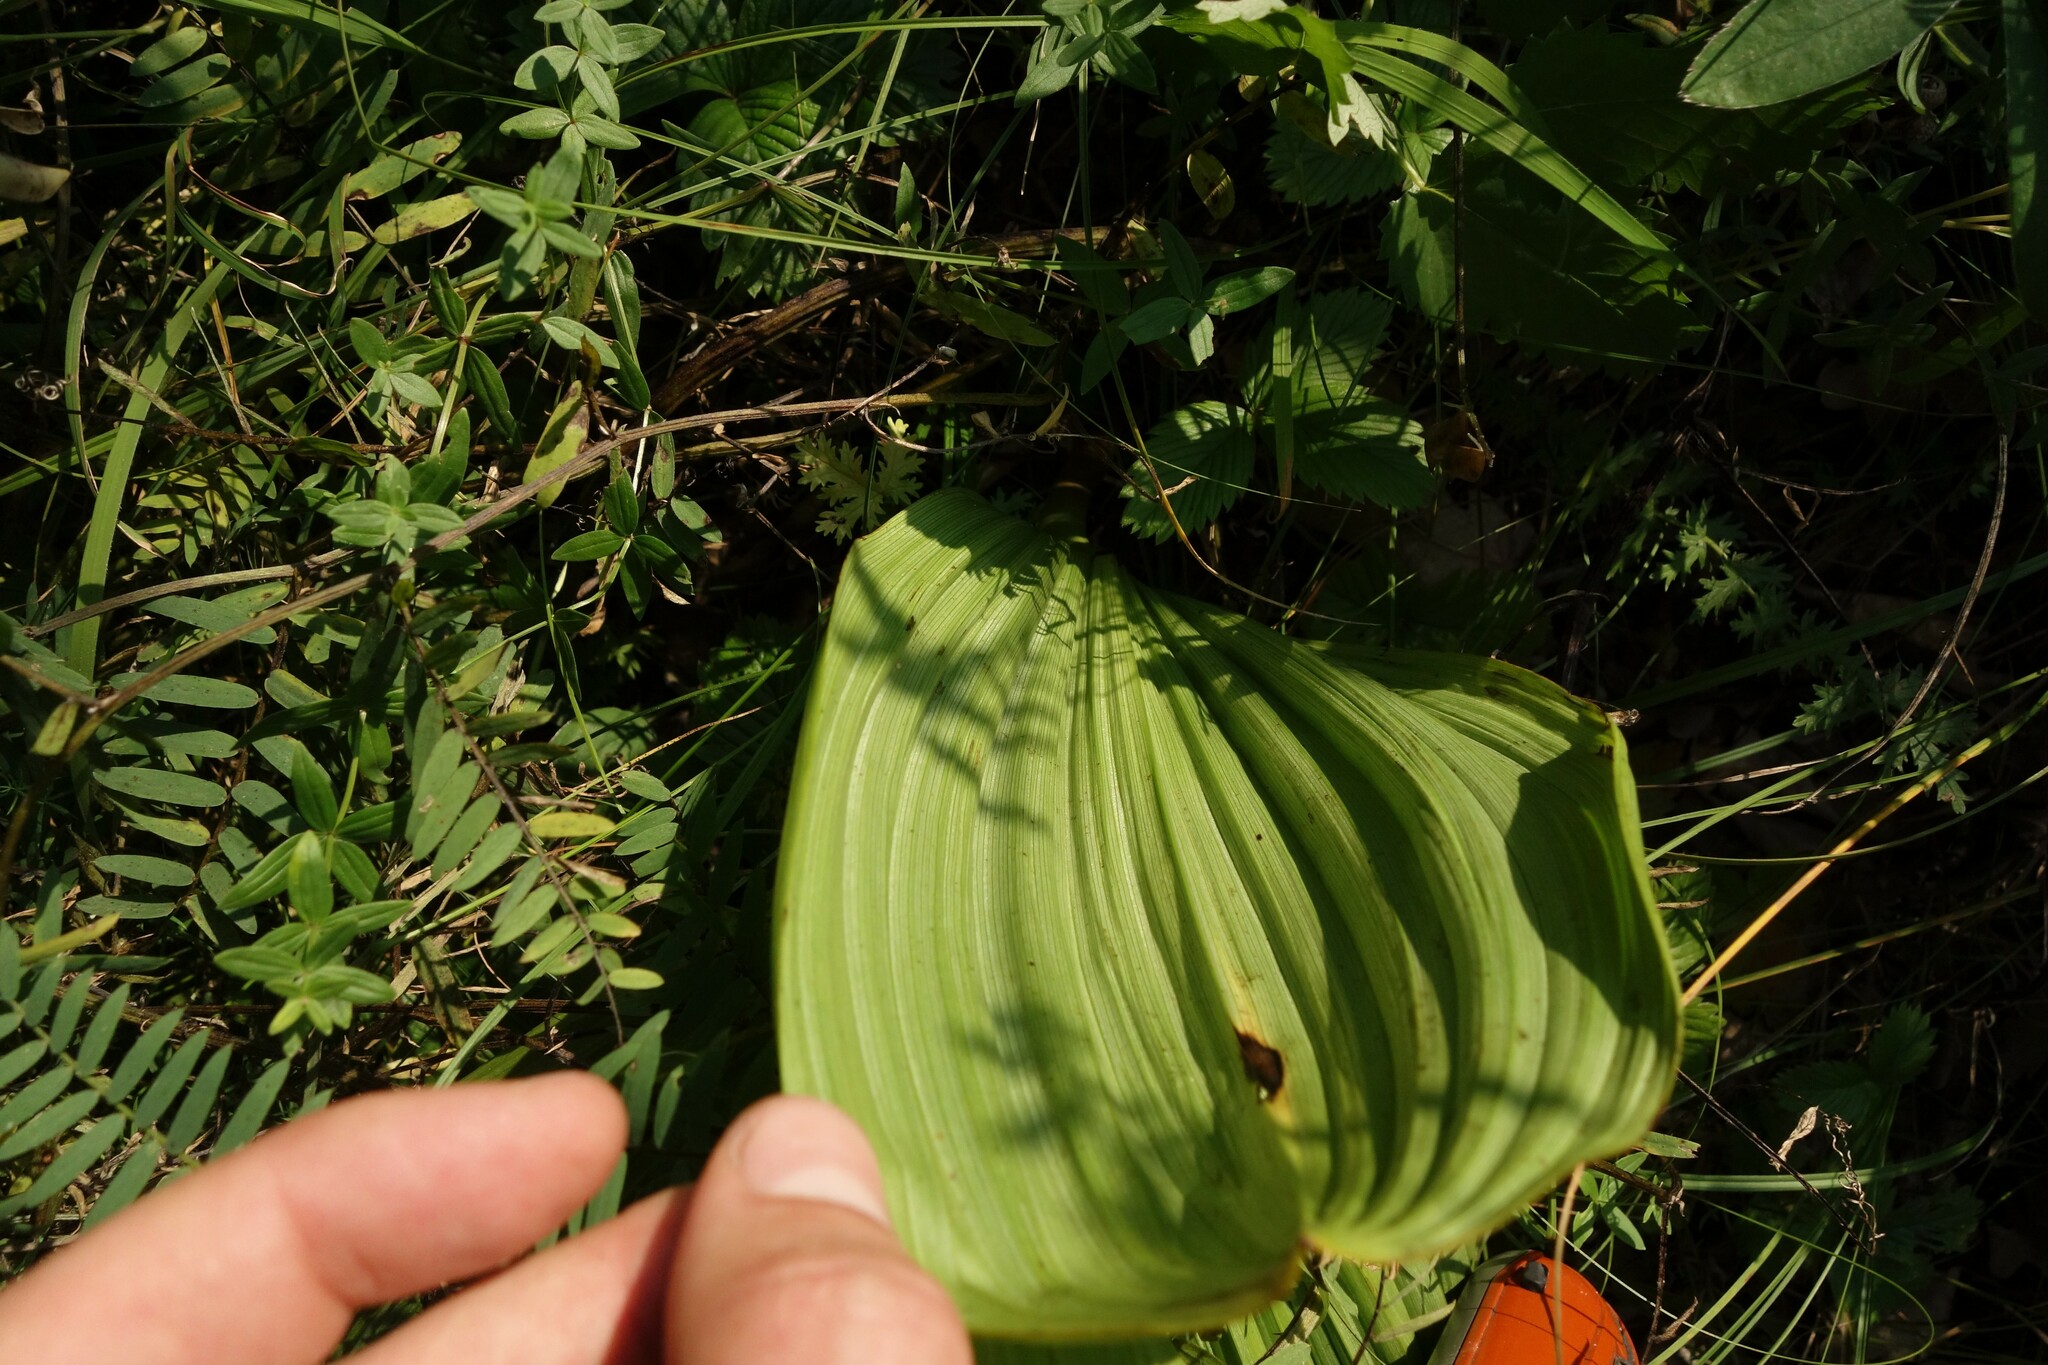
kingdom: Plantae
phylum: Tracheophyta
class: Liliopsida
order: Liliales
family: Melanthiaceae
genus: Veratrum
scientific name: Veratrum nigrum
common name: Black veratrum
